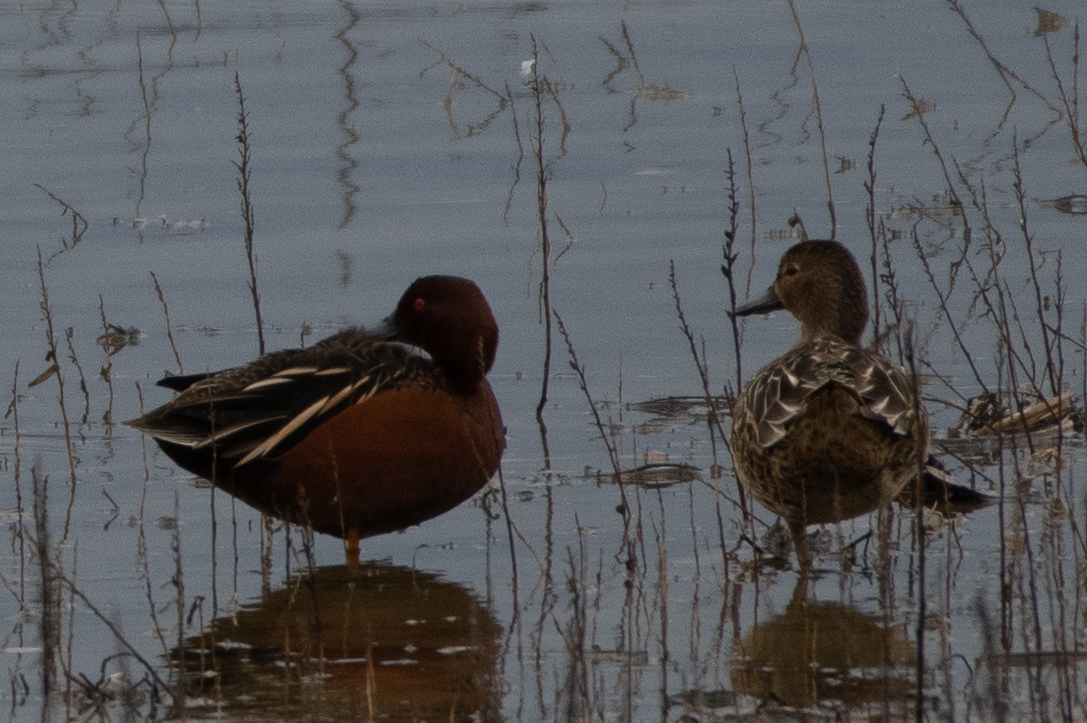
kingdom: Animalia
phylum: Chordata
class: Aves
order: Anseriformes
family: Anatidae
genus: Spatula
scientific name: Spatula cyanoptera
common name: Cinnamon teal
